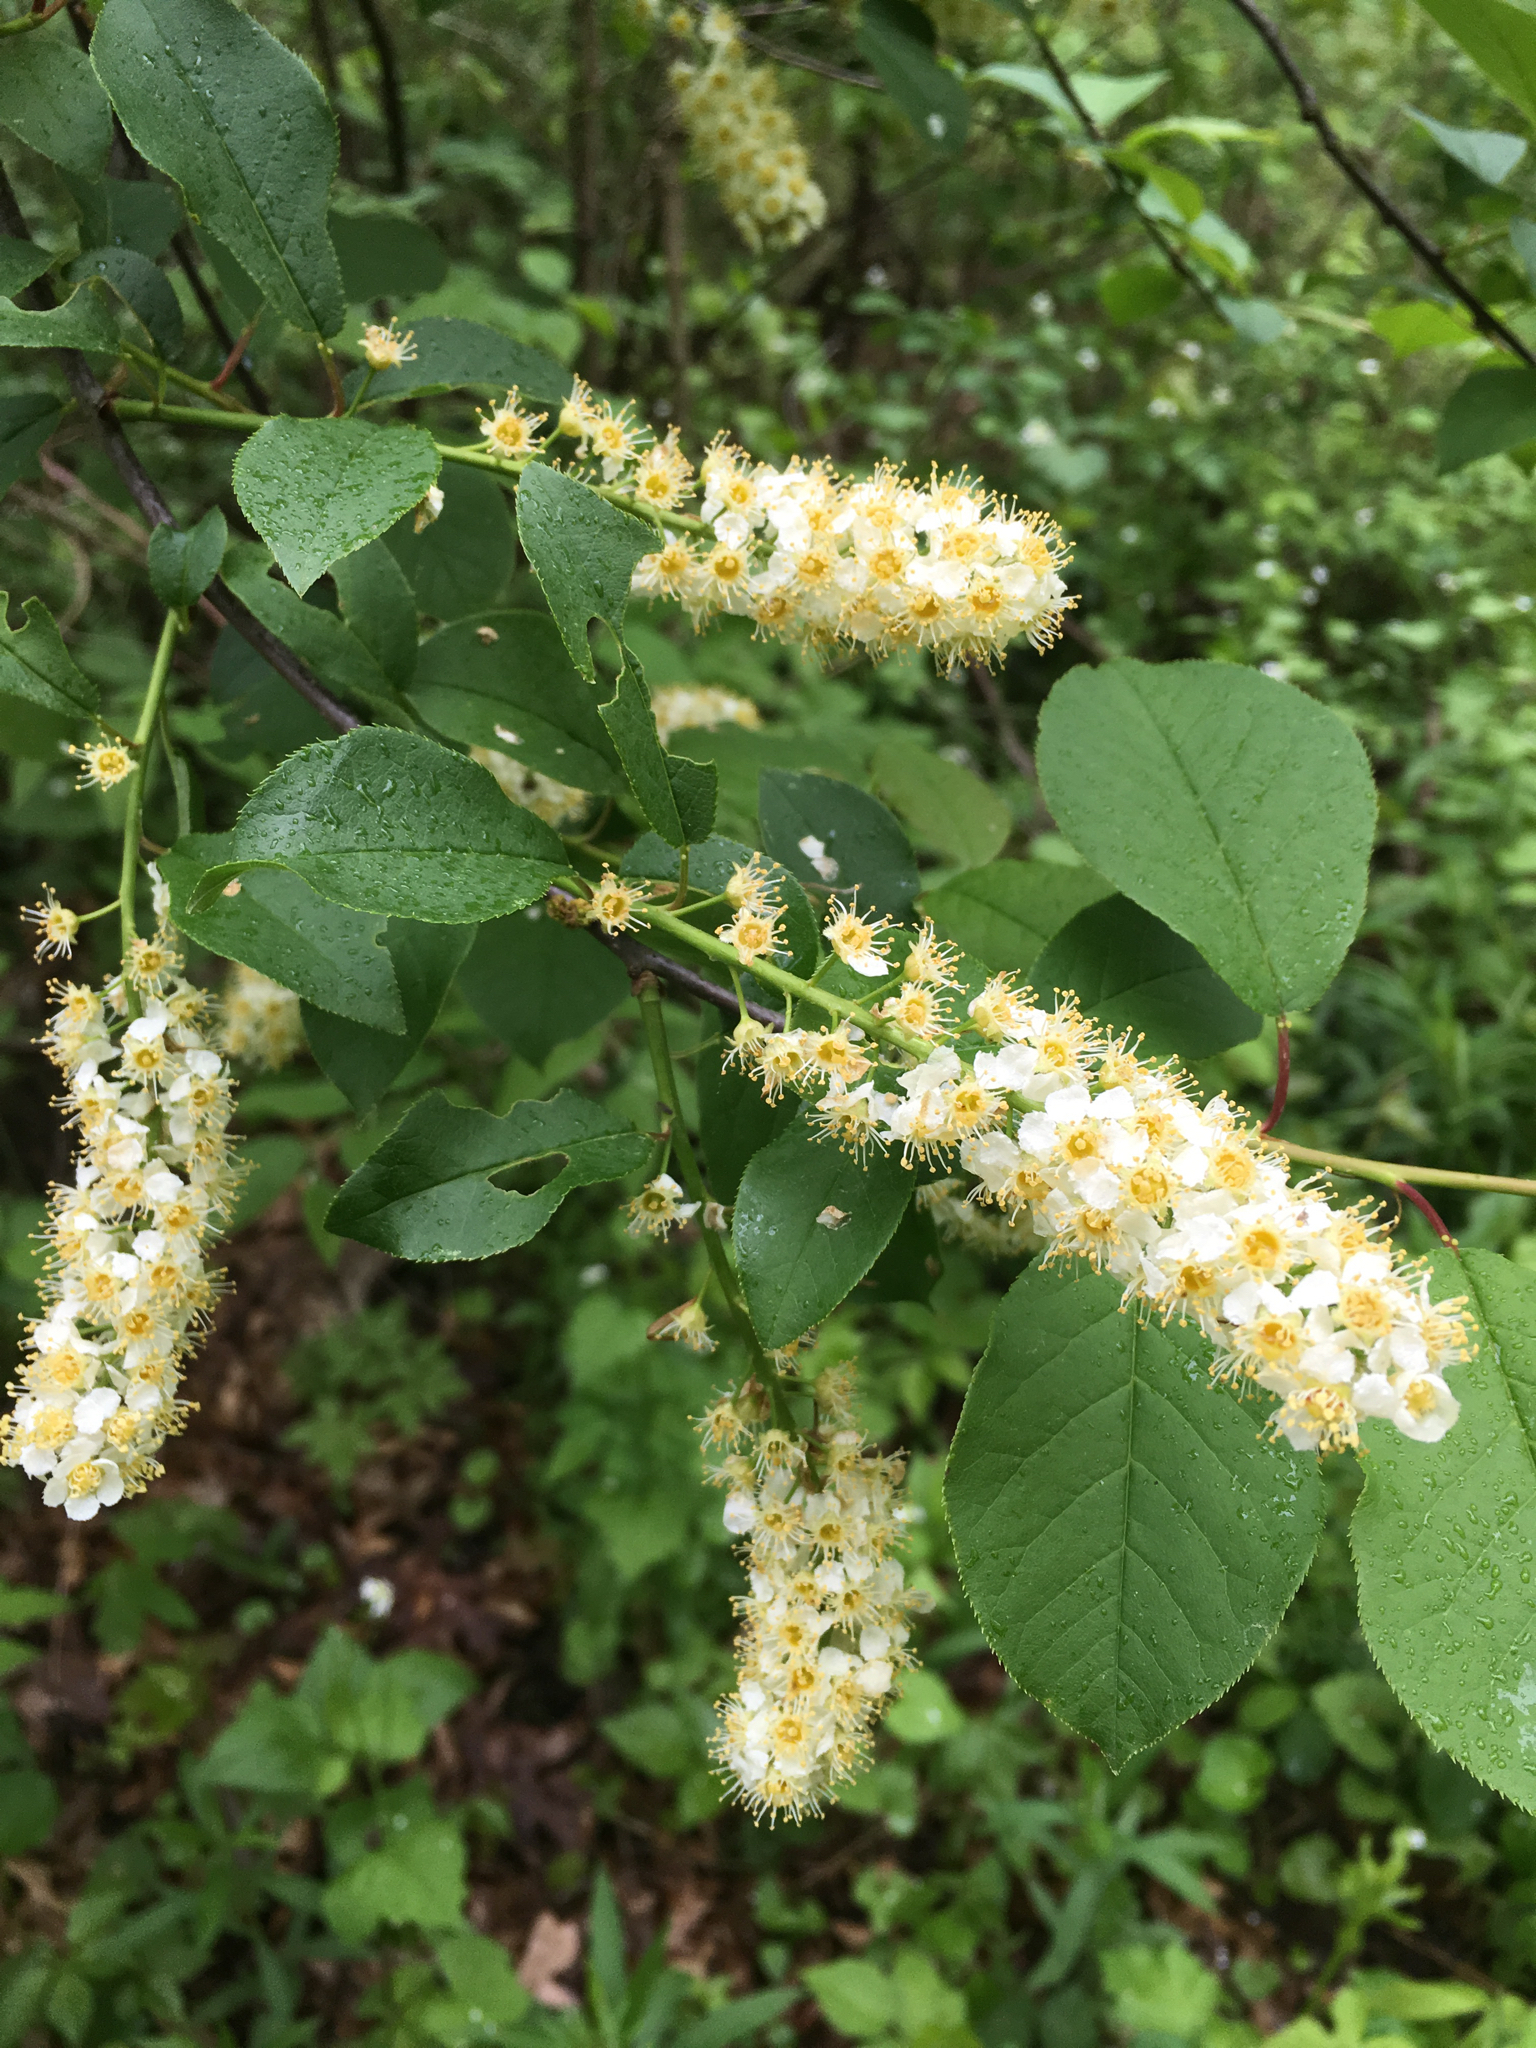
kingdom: Plantae
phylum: Tracheophyta
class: Magnoliopsida
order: Rosales
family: Rosaceae
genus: Prunus
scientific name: Prunus virginiana
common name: Chokecherry
